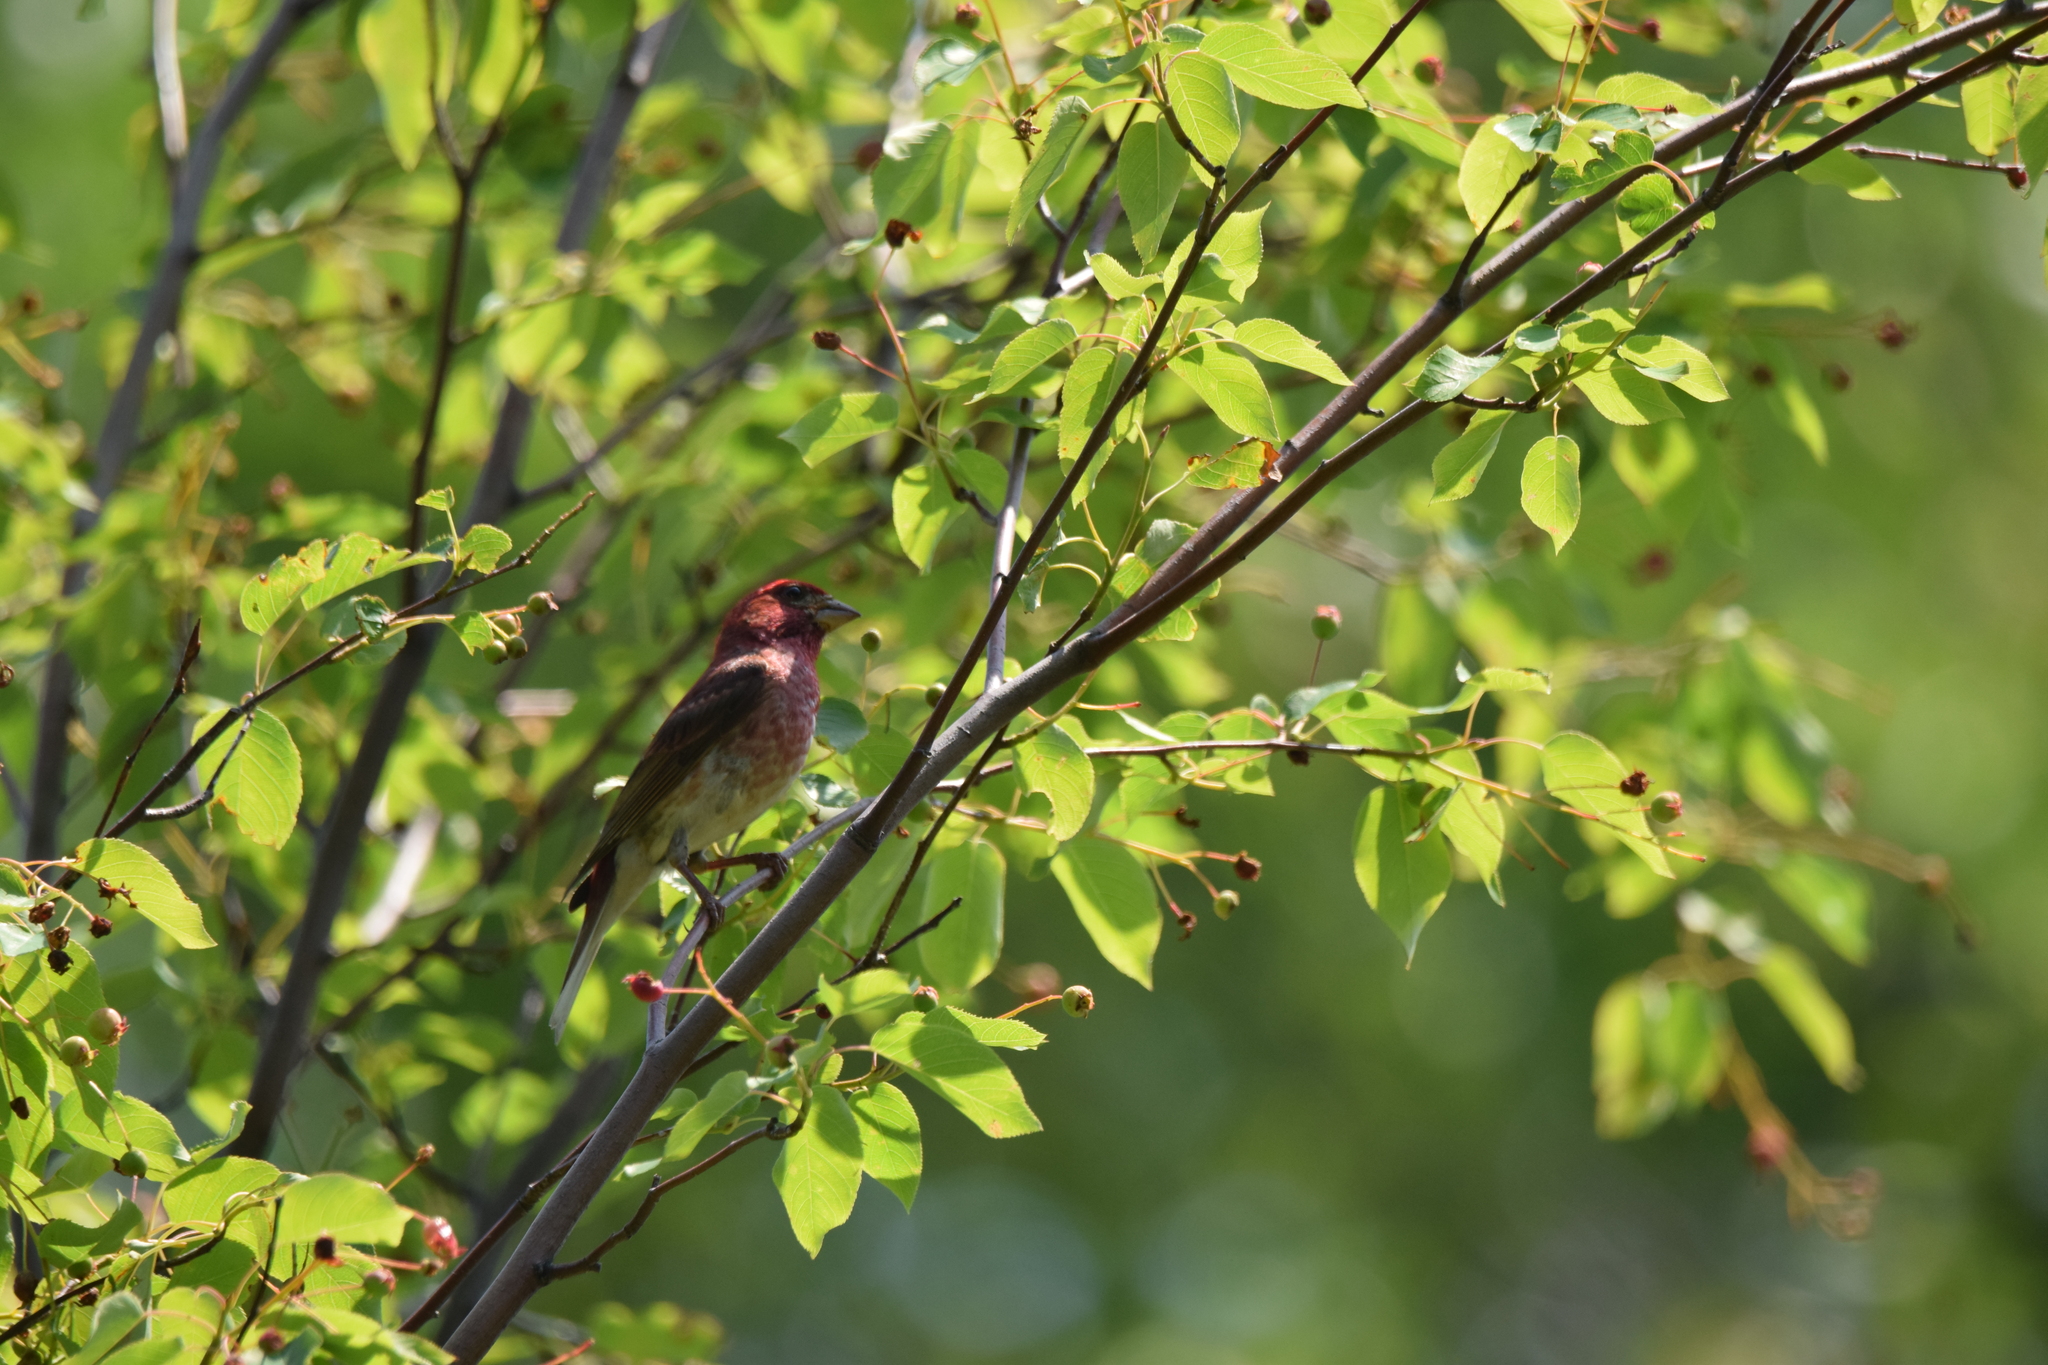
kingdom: Animalia
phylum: Chordata
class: Aves
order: Passeriformes
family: Fringillidae
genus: Haemorhous
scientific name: Haemorhous purpureus
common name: Purple finch
